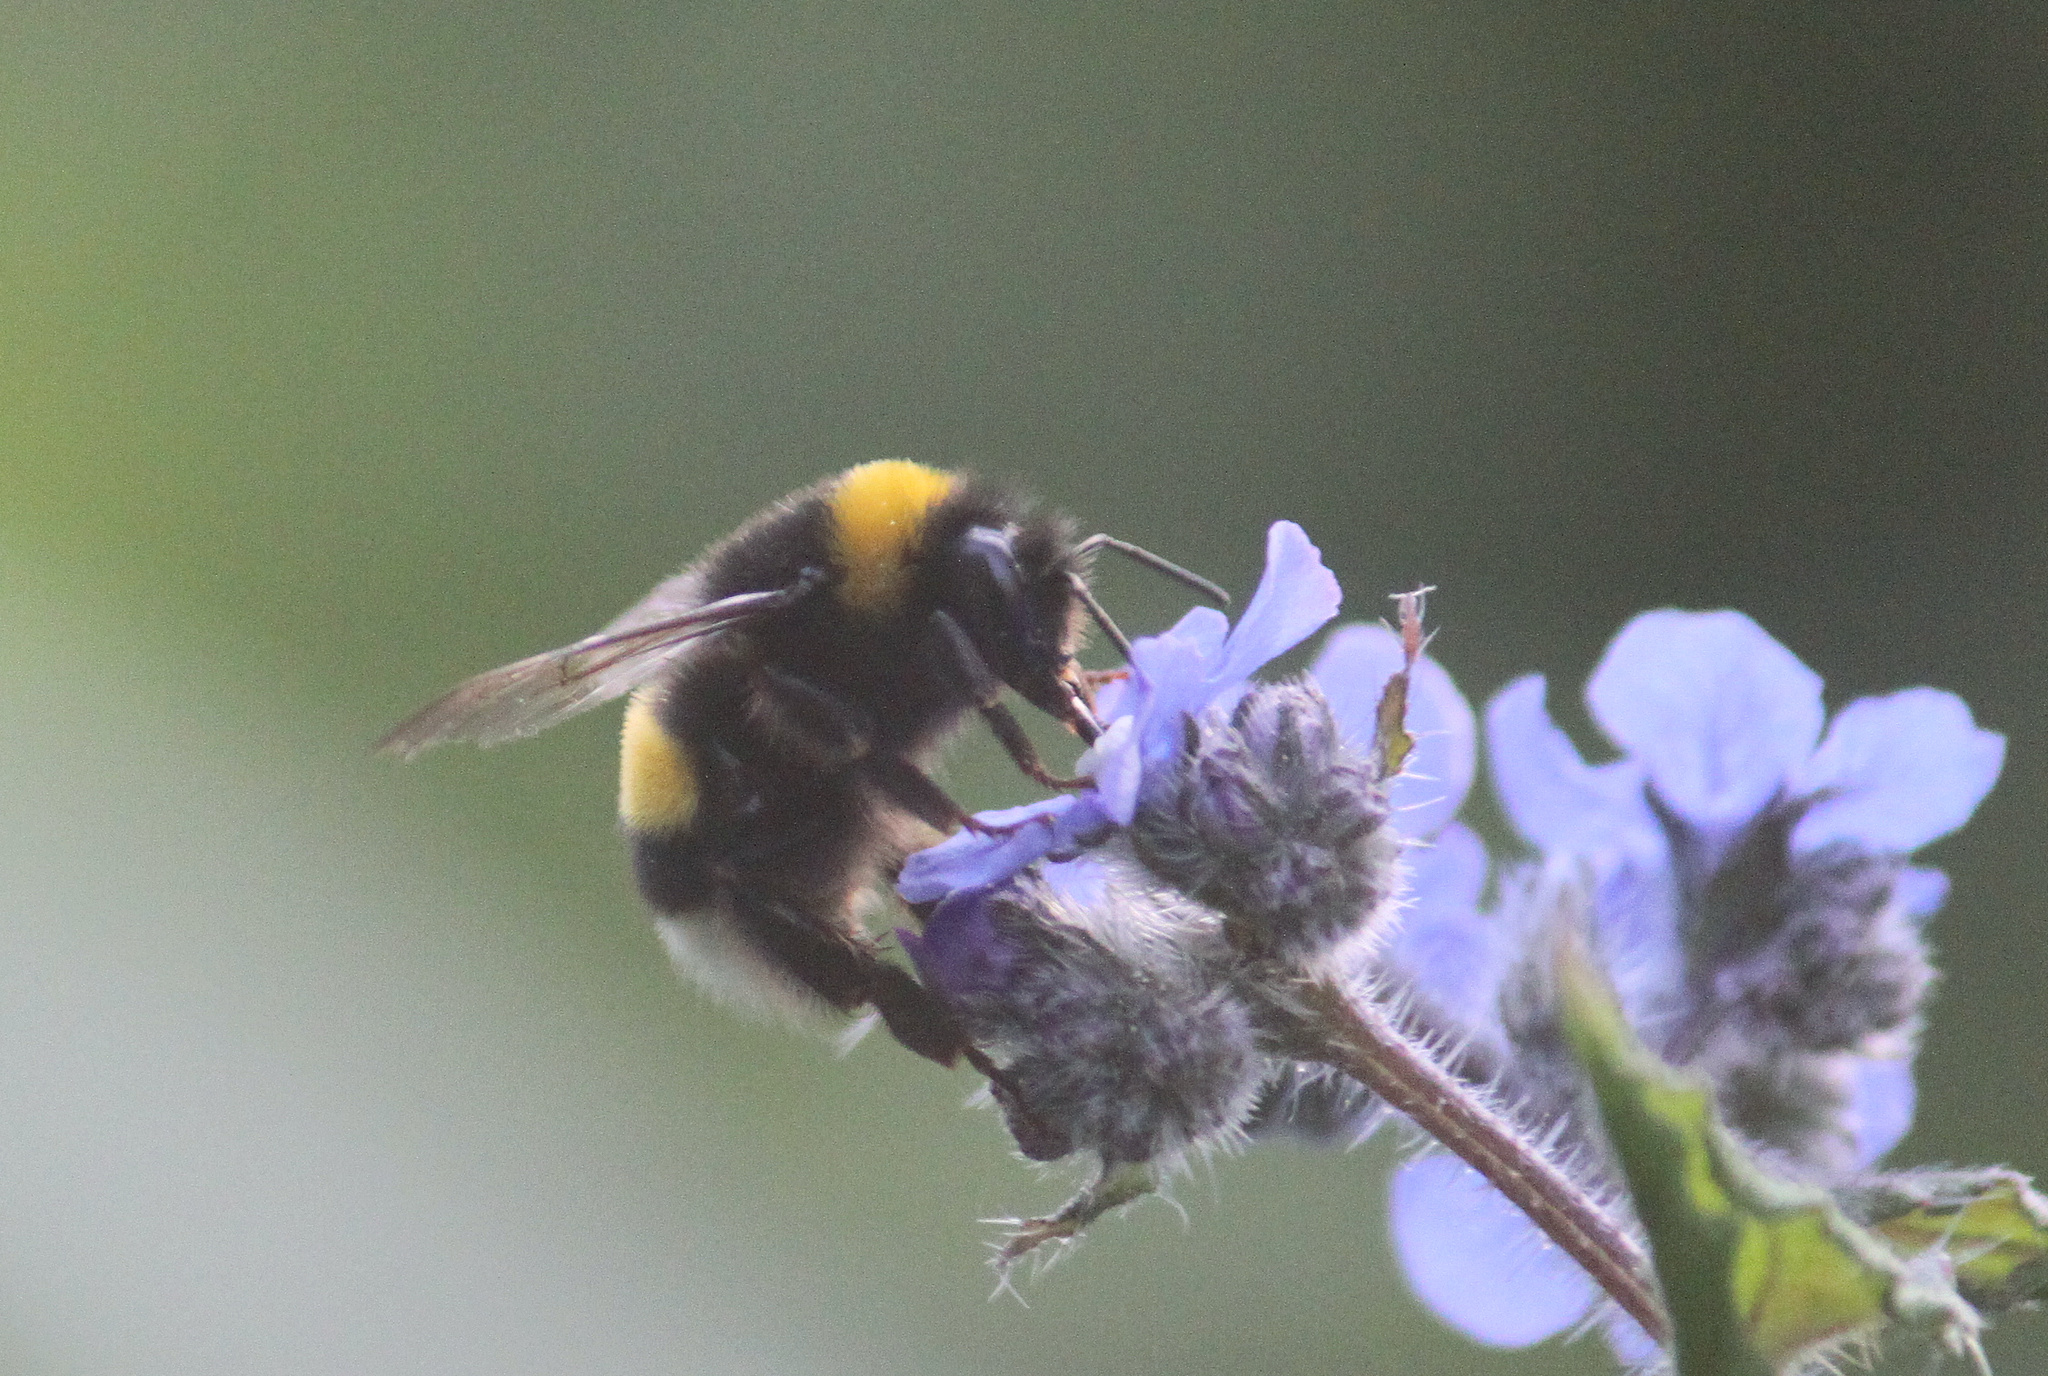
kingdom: Animalia
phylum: Arthropoda
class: Insecta
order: Hymenoptera
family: Apidae
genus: Bombus
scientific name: Bombus terrestris
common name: Buff-tailed bumblebee
